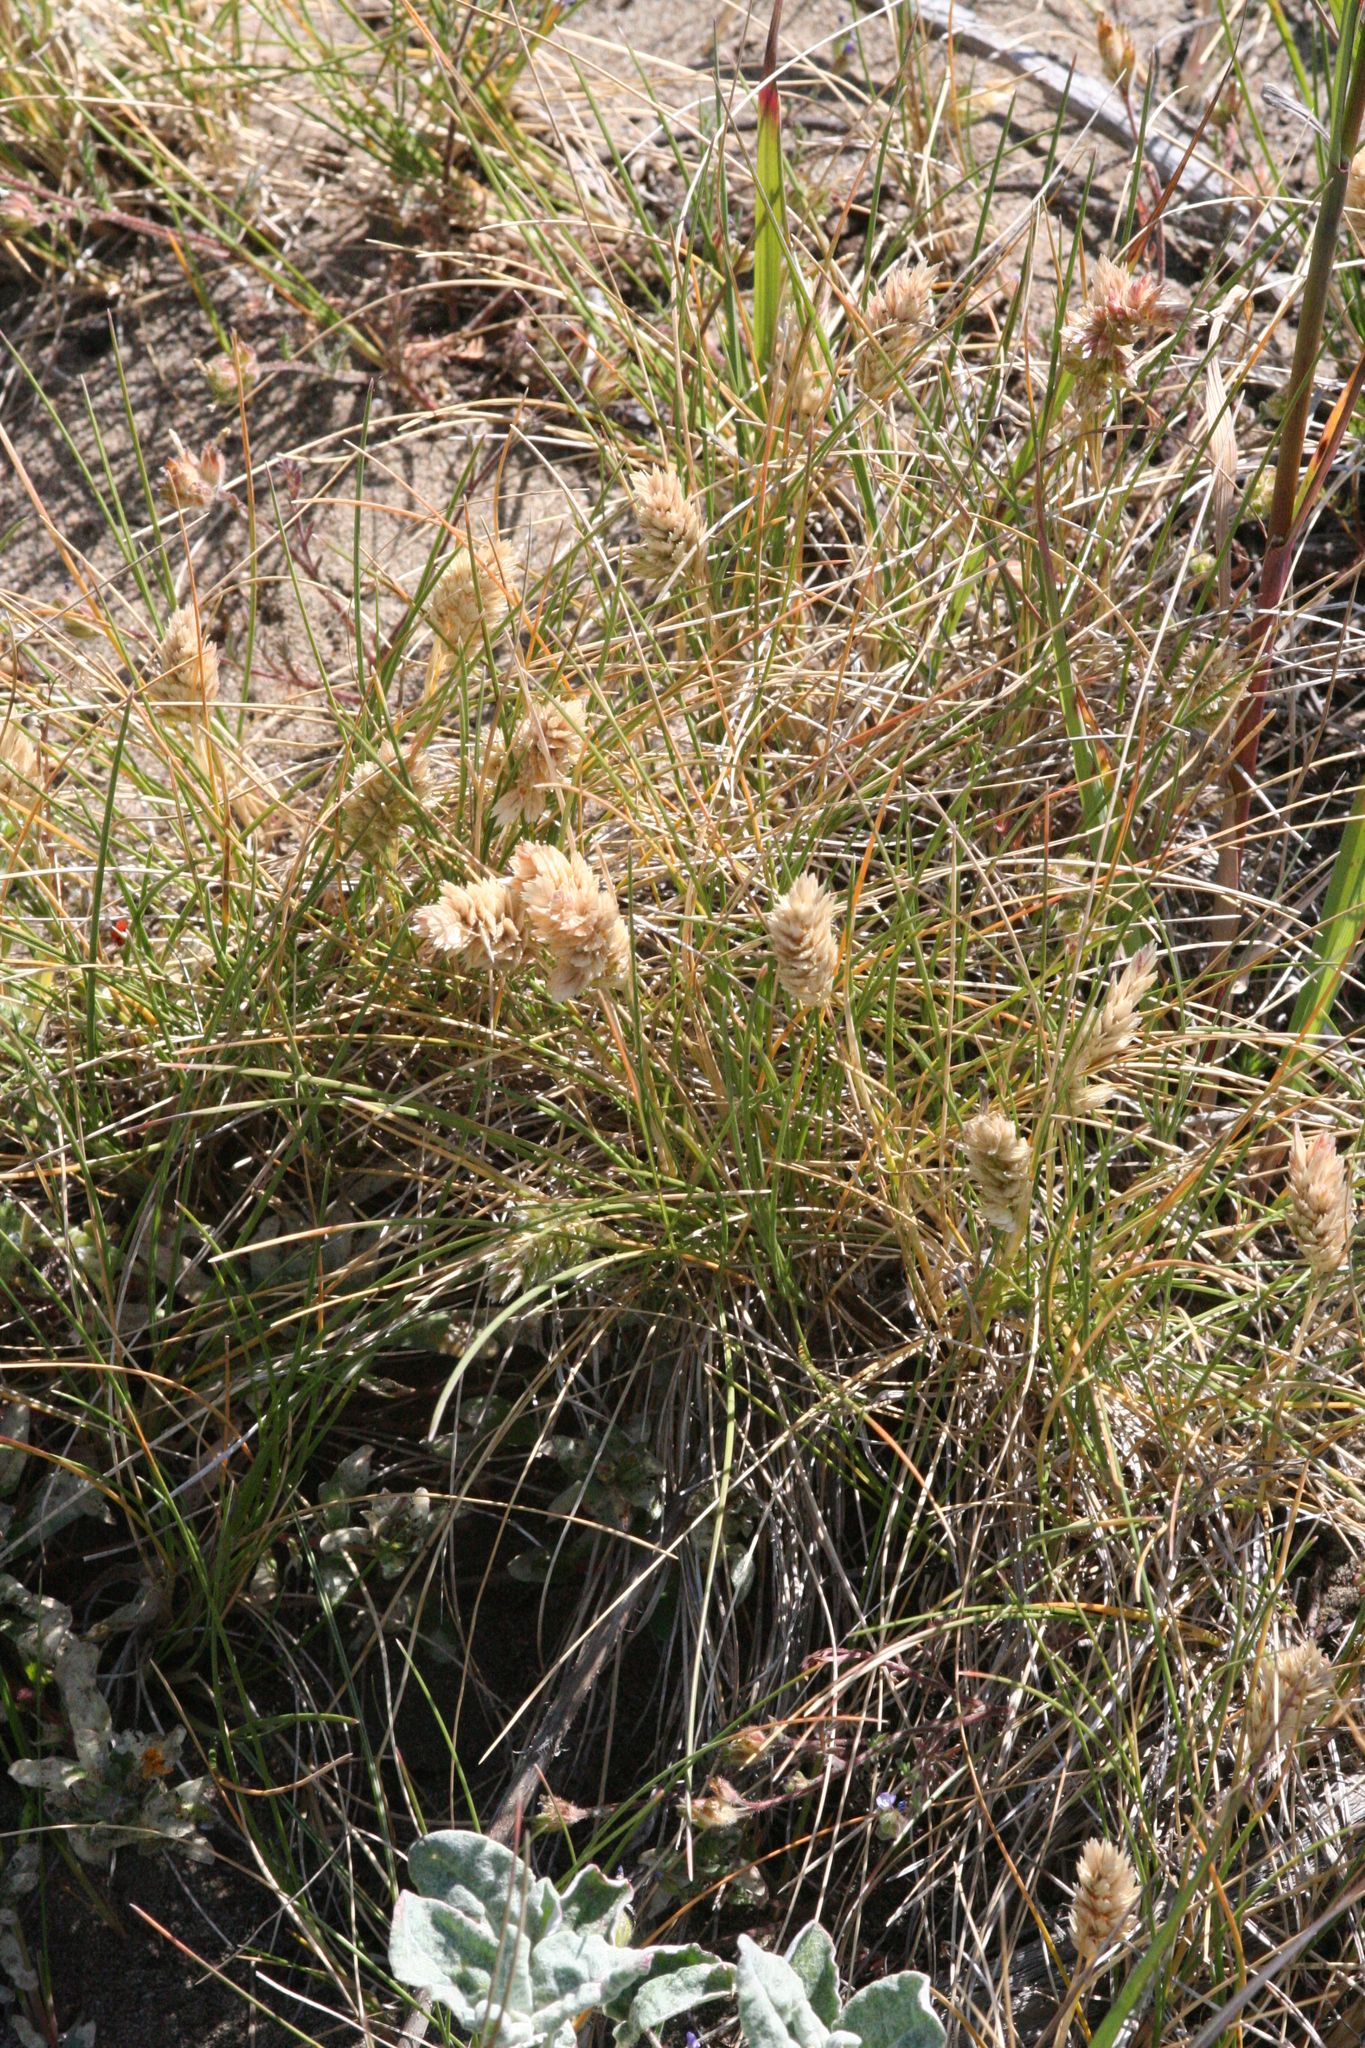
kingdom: Plantae
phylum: Tracheophyta
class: Liliopsida
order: Poales
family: Poaceae
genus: Poa
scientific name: Poa douglasii
